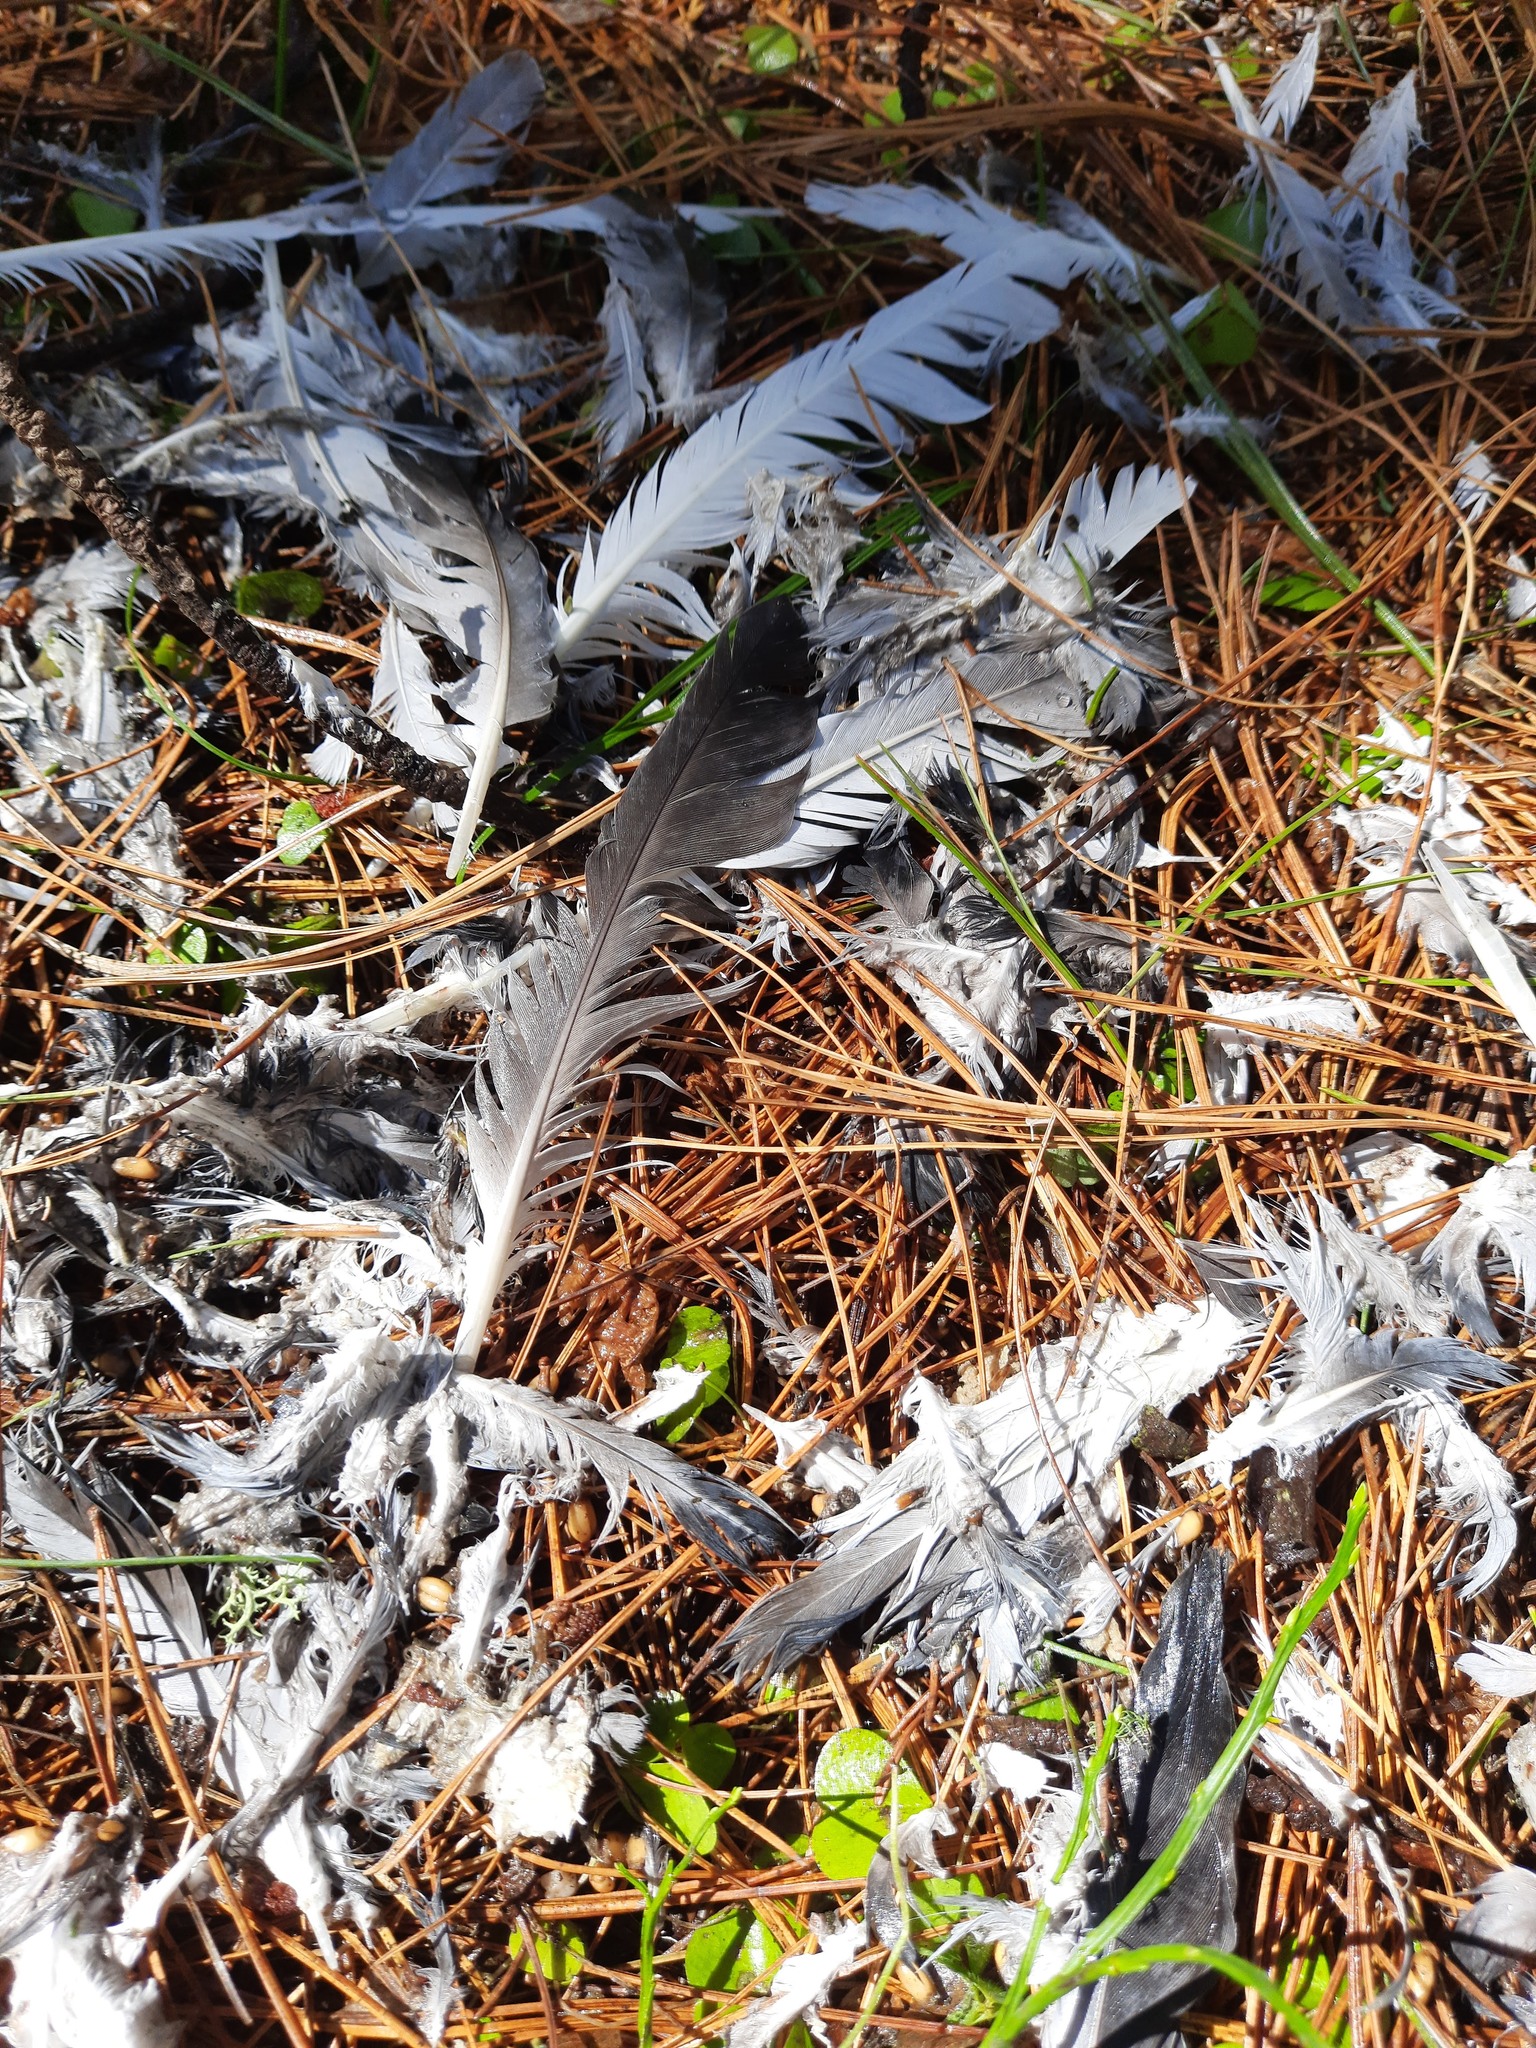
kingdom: Animalia
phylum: Chordata
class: Aves
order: Columbiformes
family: Columbidae
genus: Columba
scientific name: Columba livia
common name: Rock pigeon
